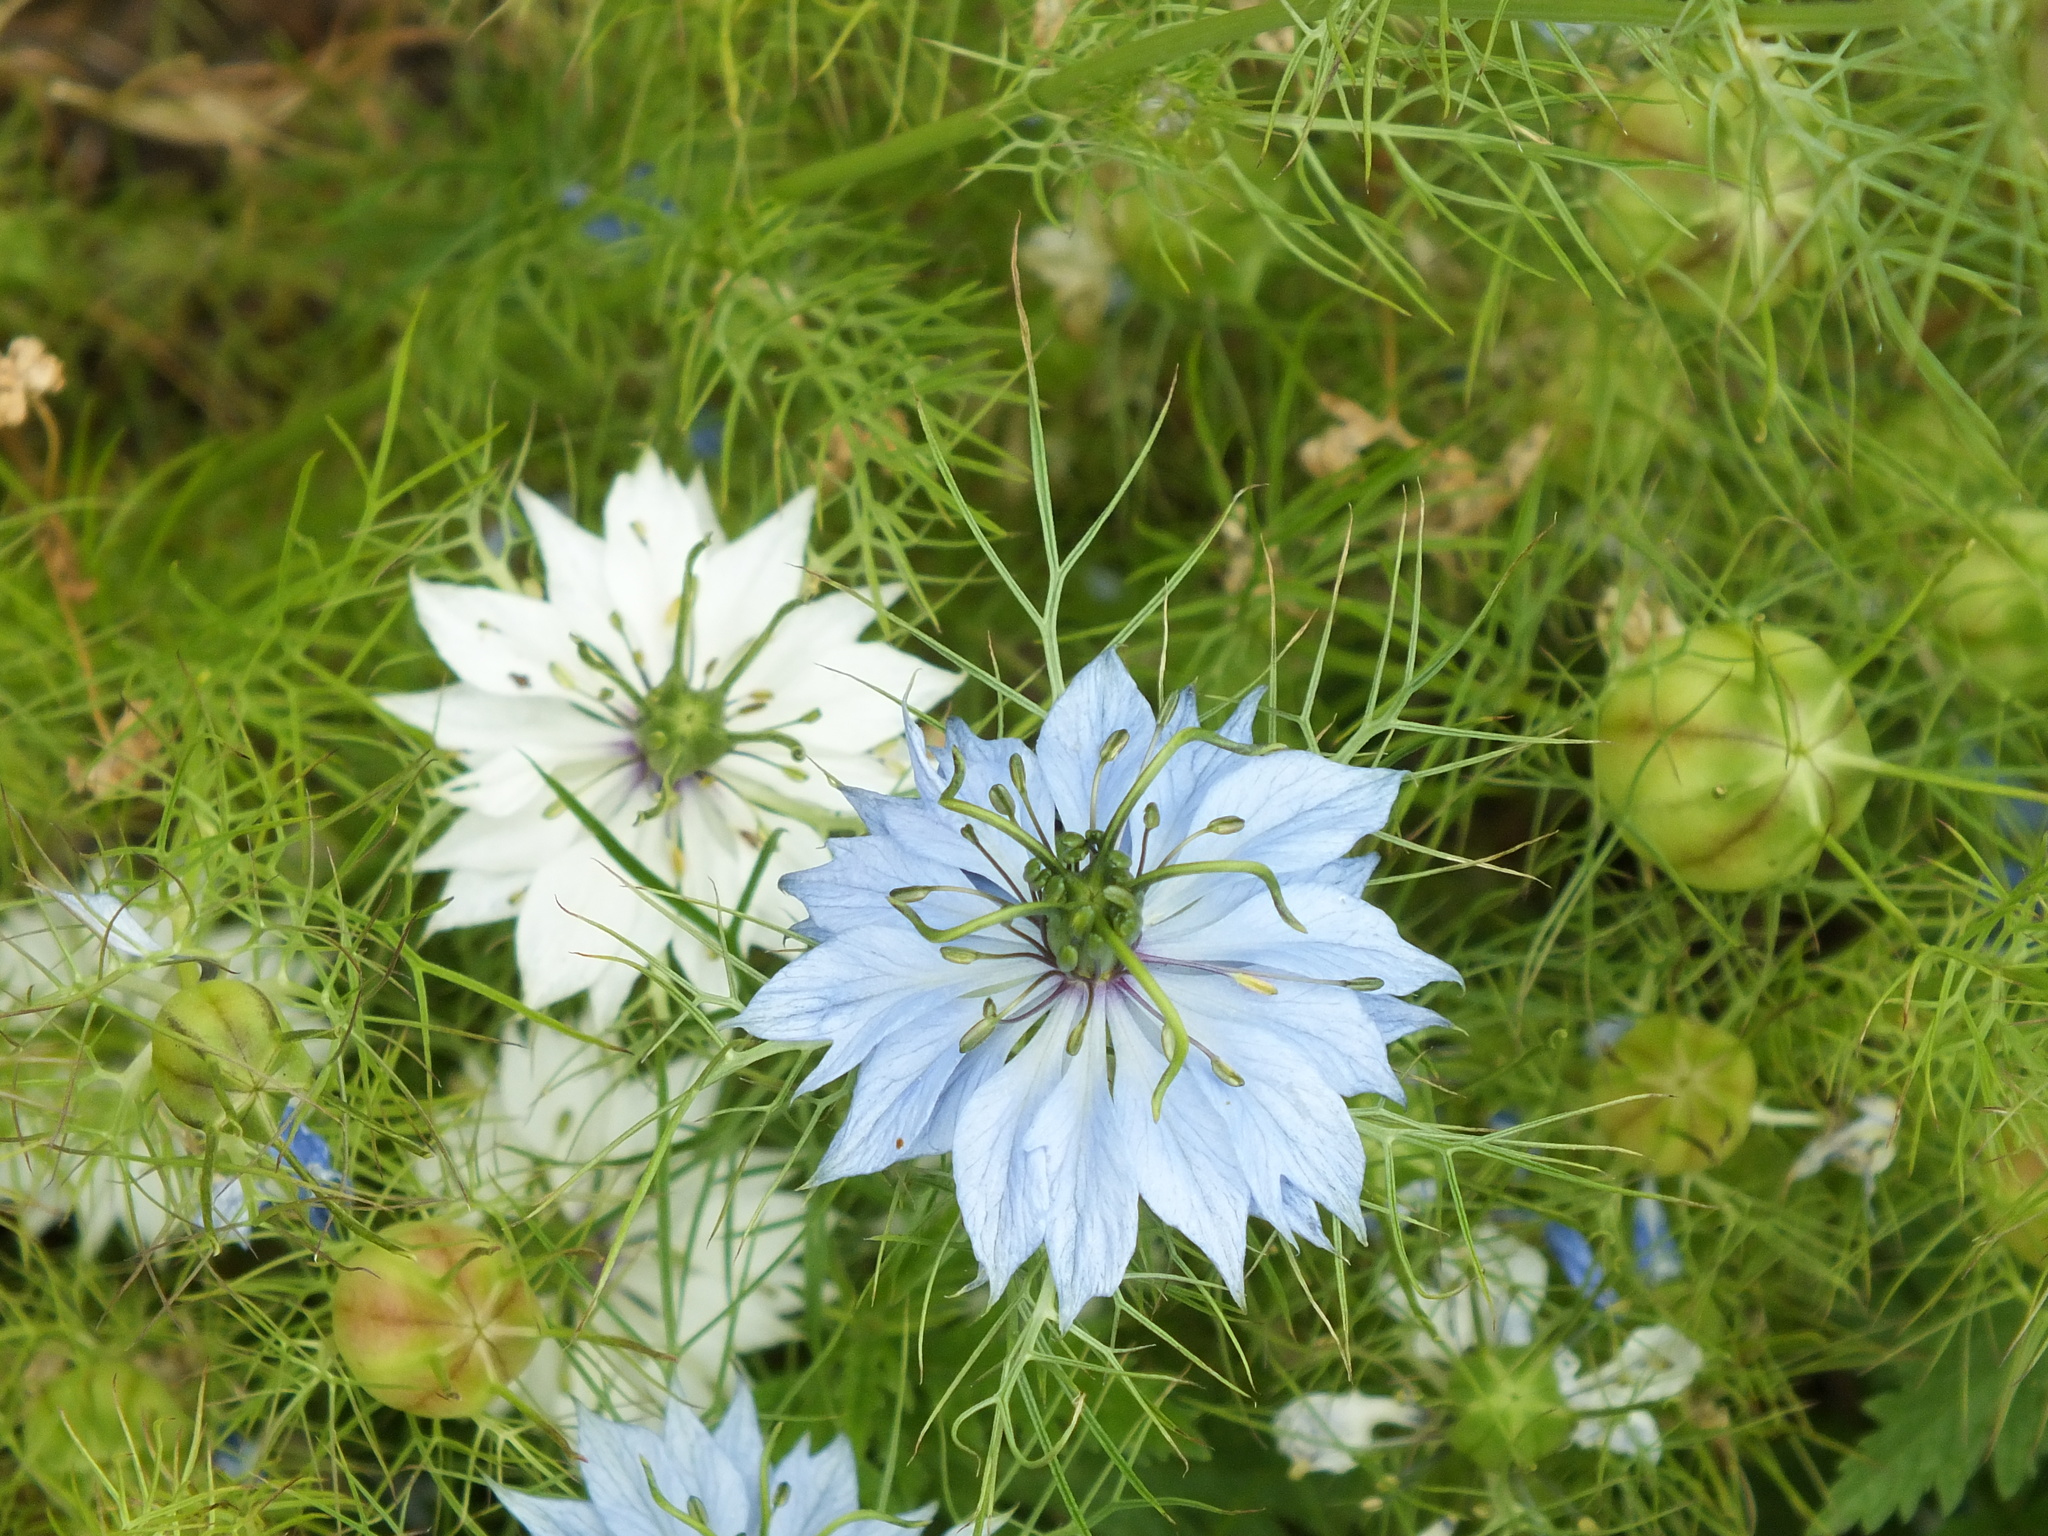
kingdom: Plantae
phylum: Tracheophyta
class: Magnoliopsida
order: Ranunculales
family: Ranunculaceae
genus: Nigella
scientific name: Nigella damascena
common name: Love-in-a-mist
